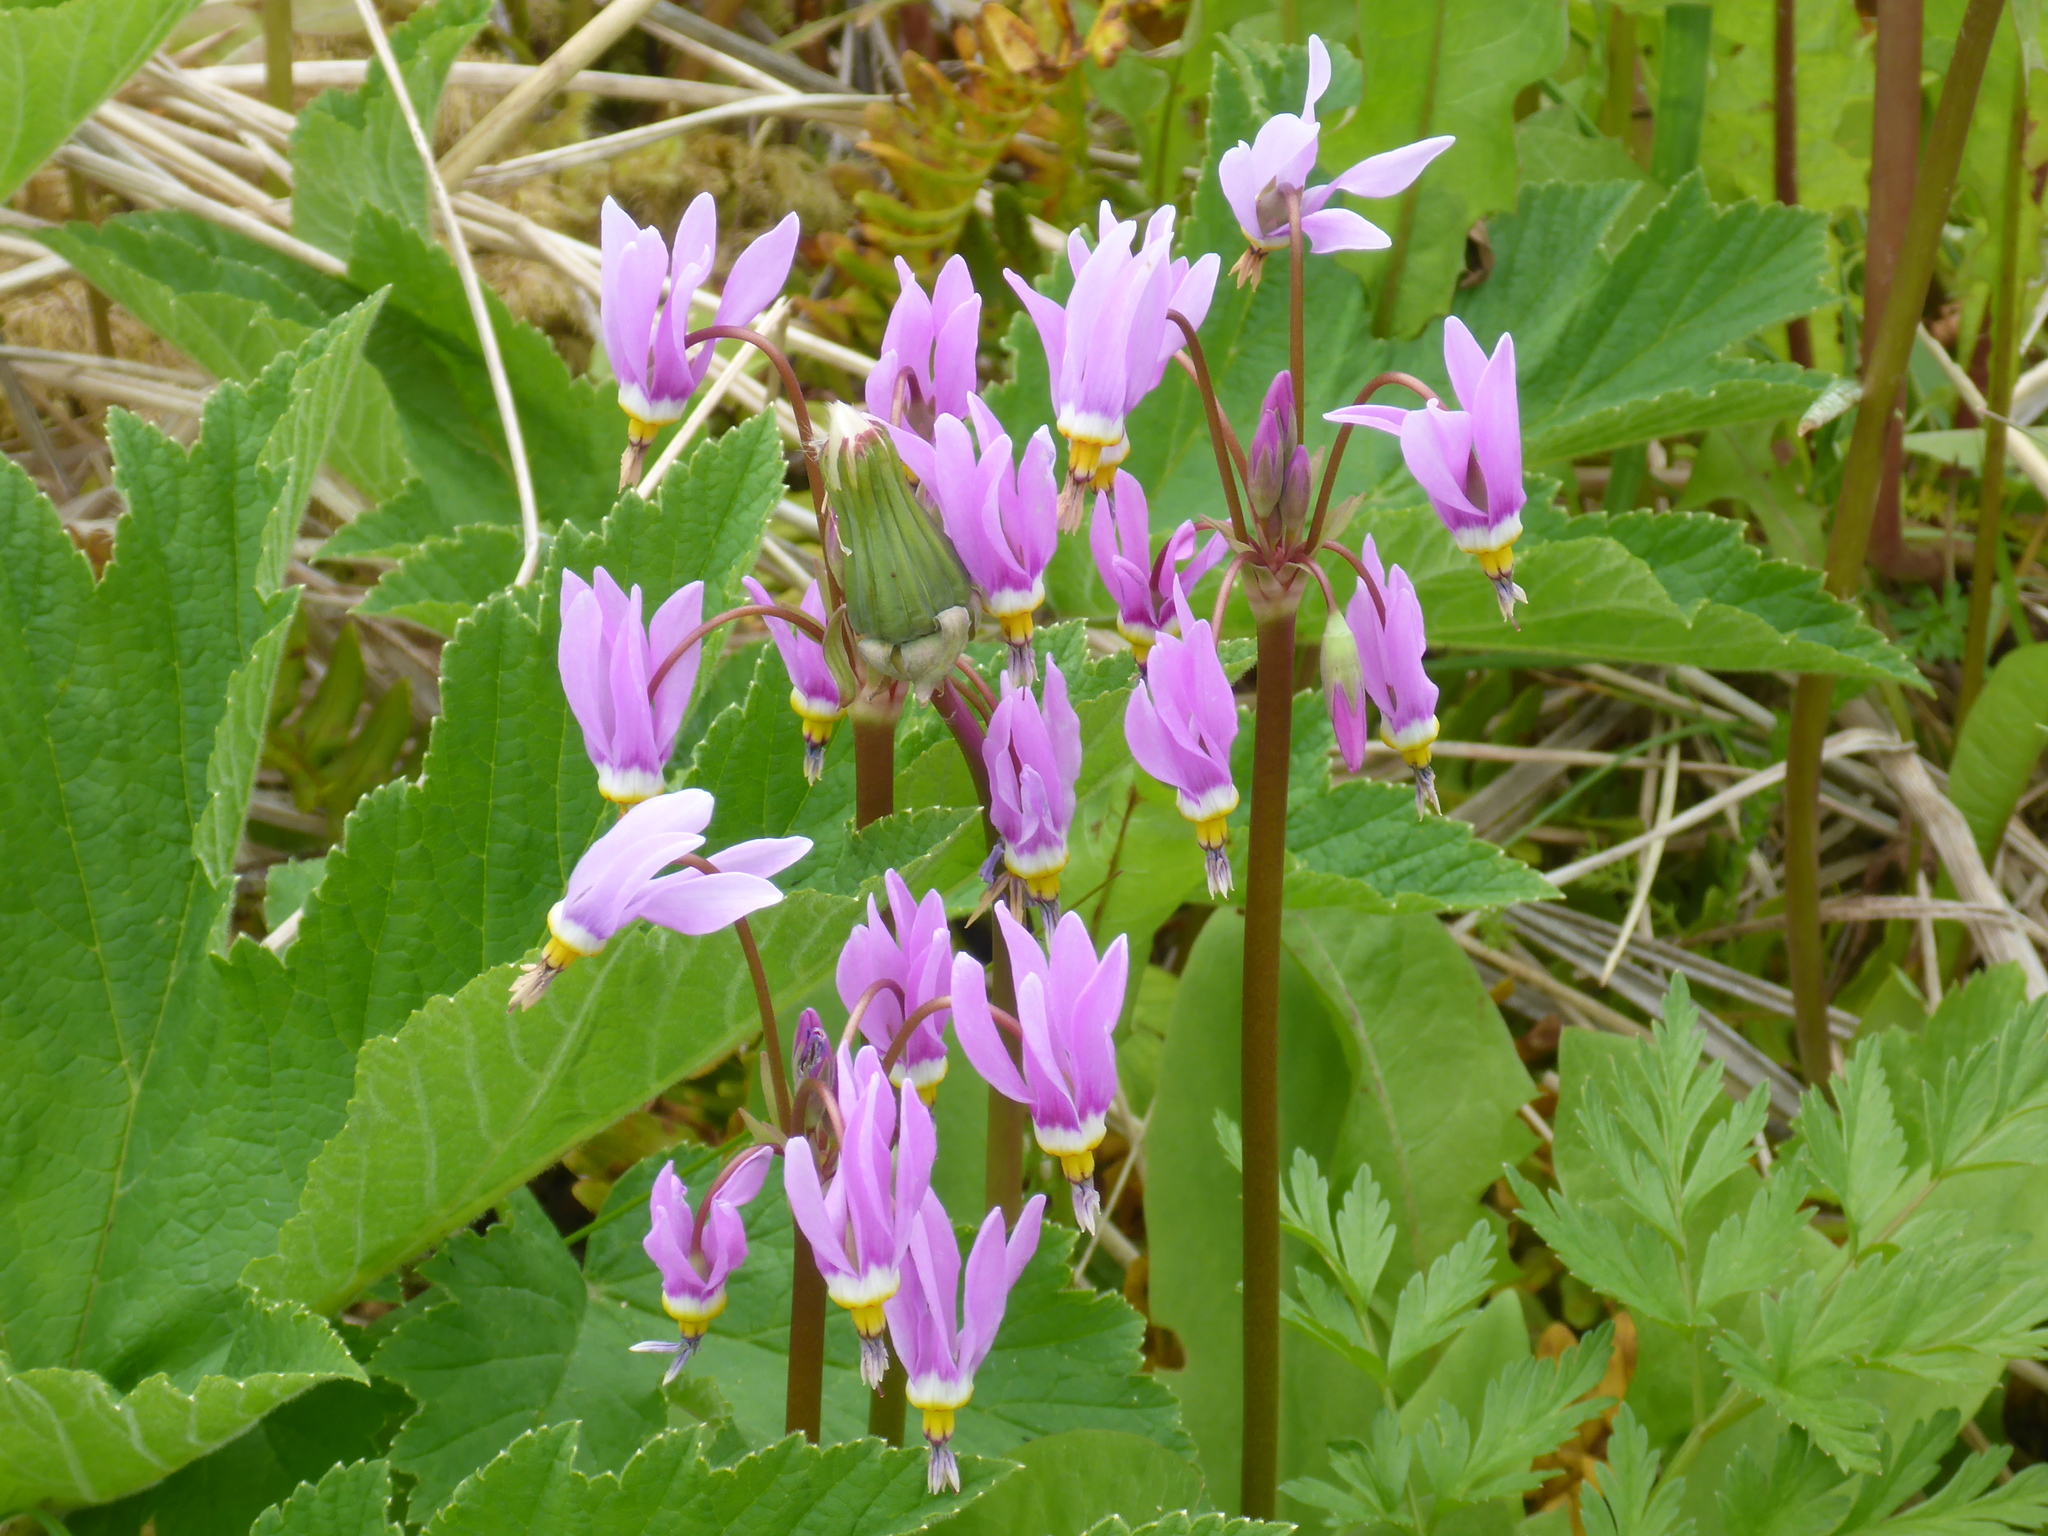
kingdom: Plantae
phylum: Tracheophyta
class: Magnoliopsida
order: Ericales
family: Primulaceae
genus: Dodecatheon
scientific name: Dodecatheon pulchellum
